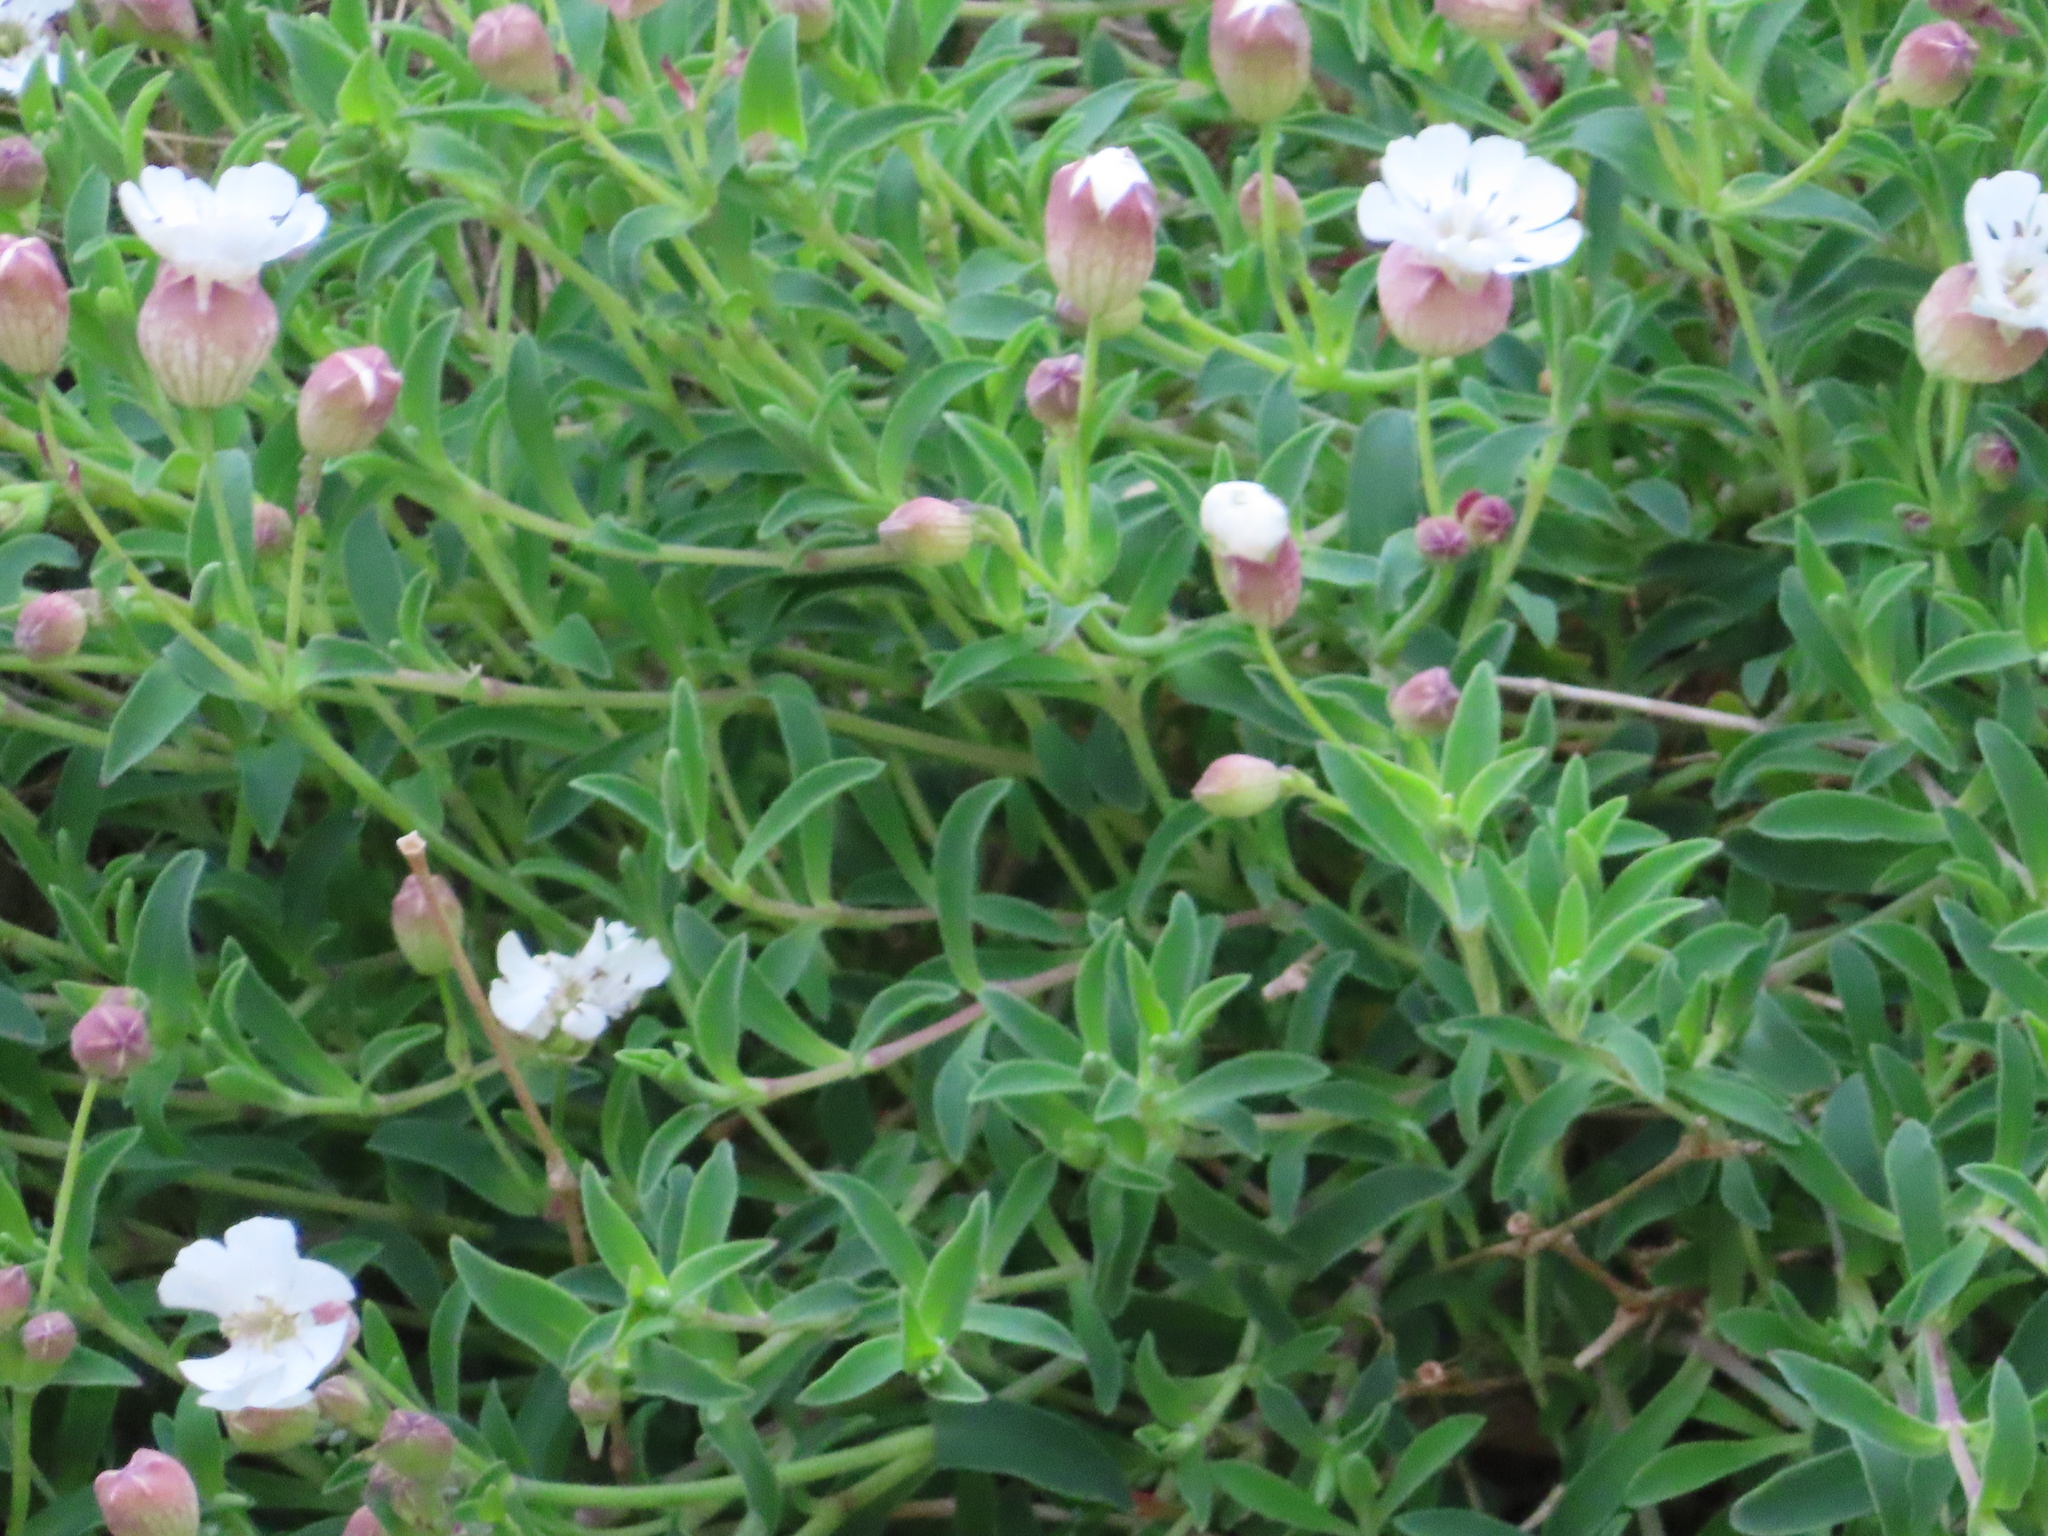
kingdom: Plantae
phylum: Tracheophyta
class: Magnoliopsida
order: Caryophyllales
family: Caryophyllaceae
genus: Silene
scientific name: Silene uniflora
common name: Sea campion
